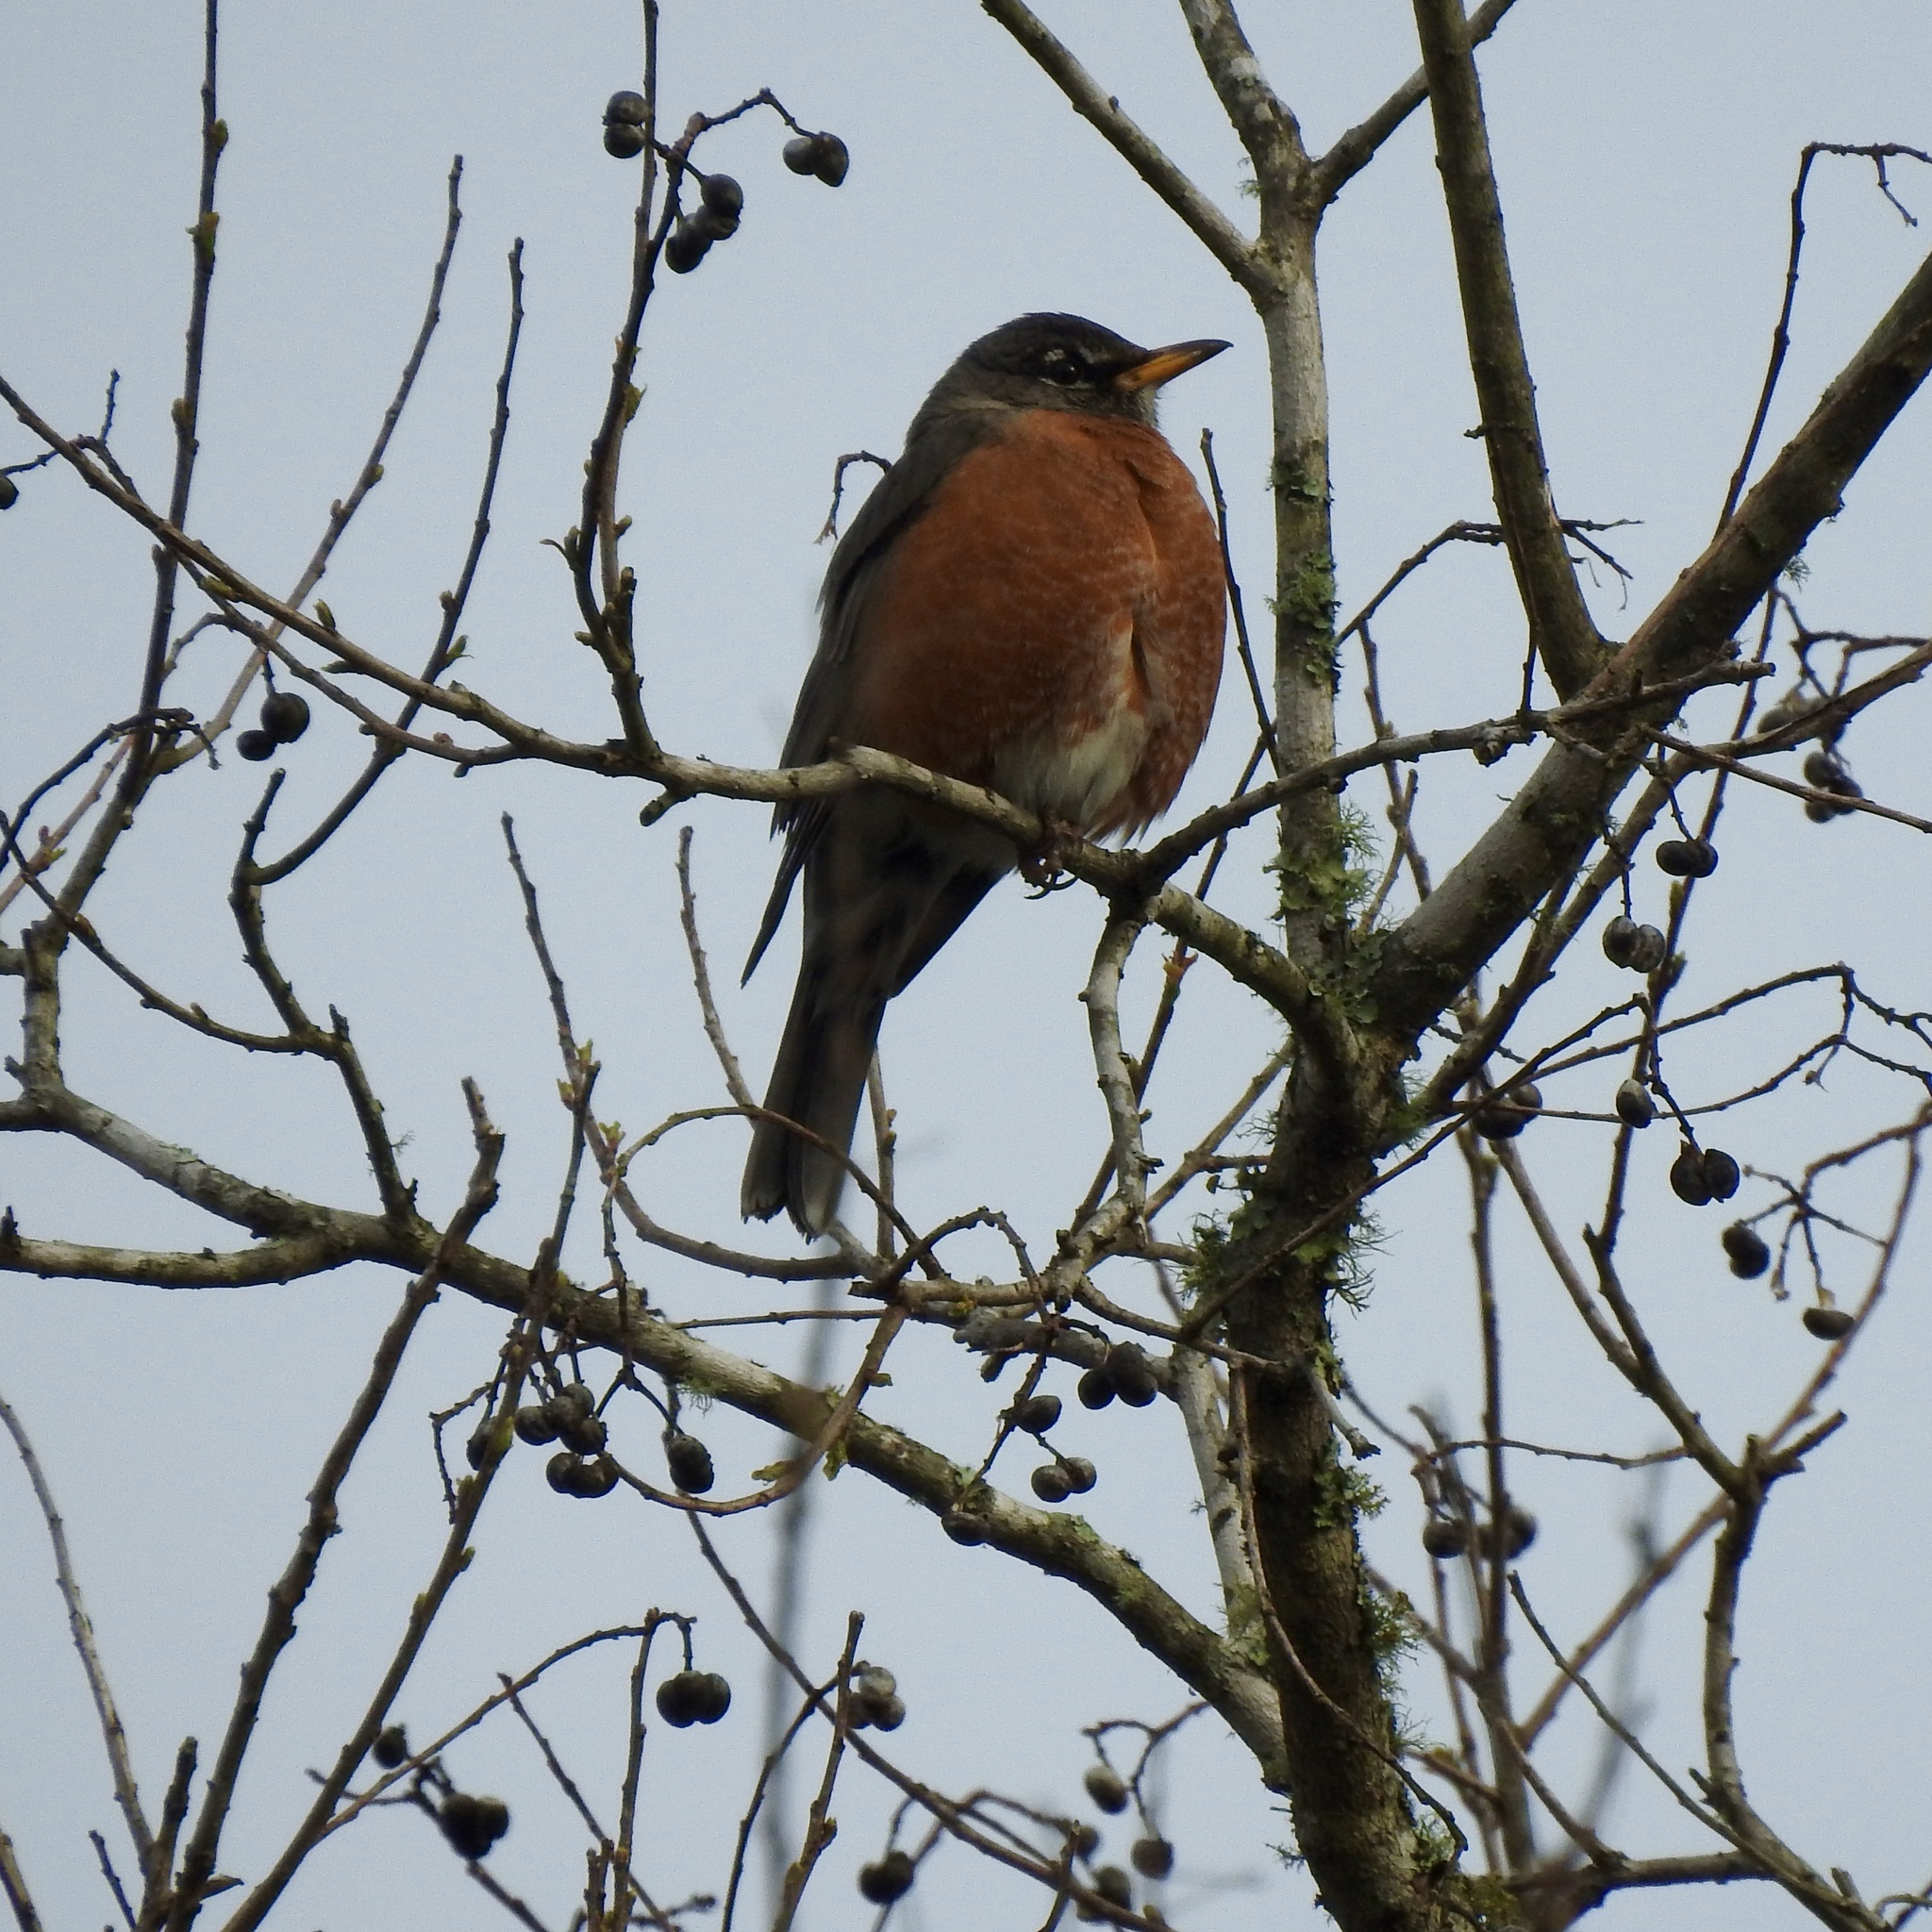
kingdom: Animalia
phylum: Chordata
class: Aves
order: Passeriformes
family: Turdidae
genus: Turdus
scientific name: Turdus migratorius
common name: American robin
